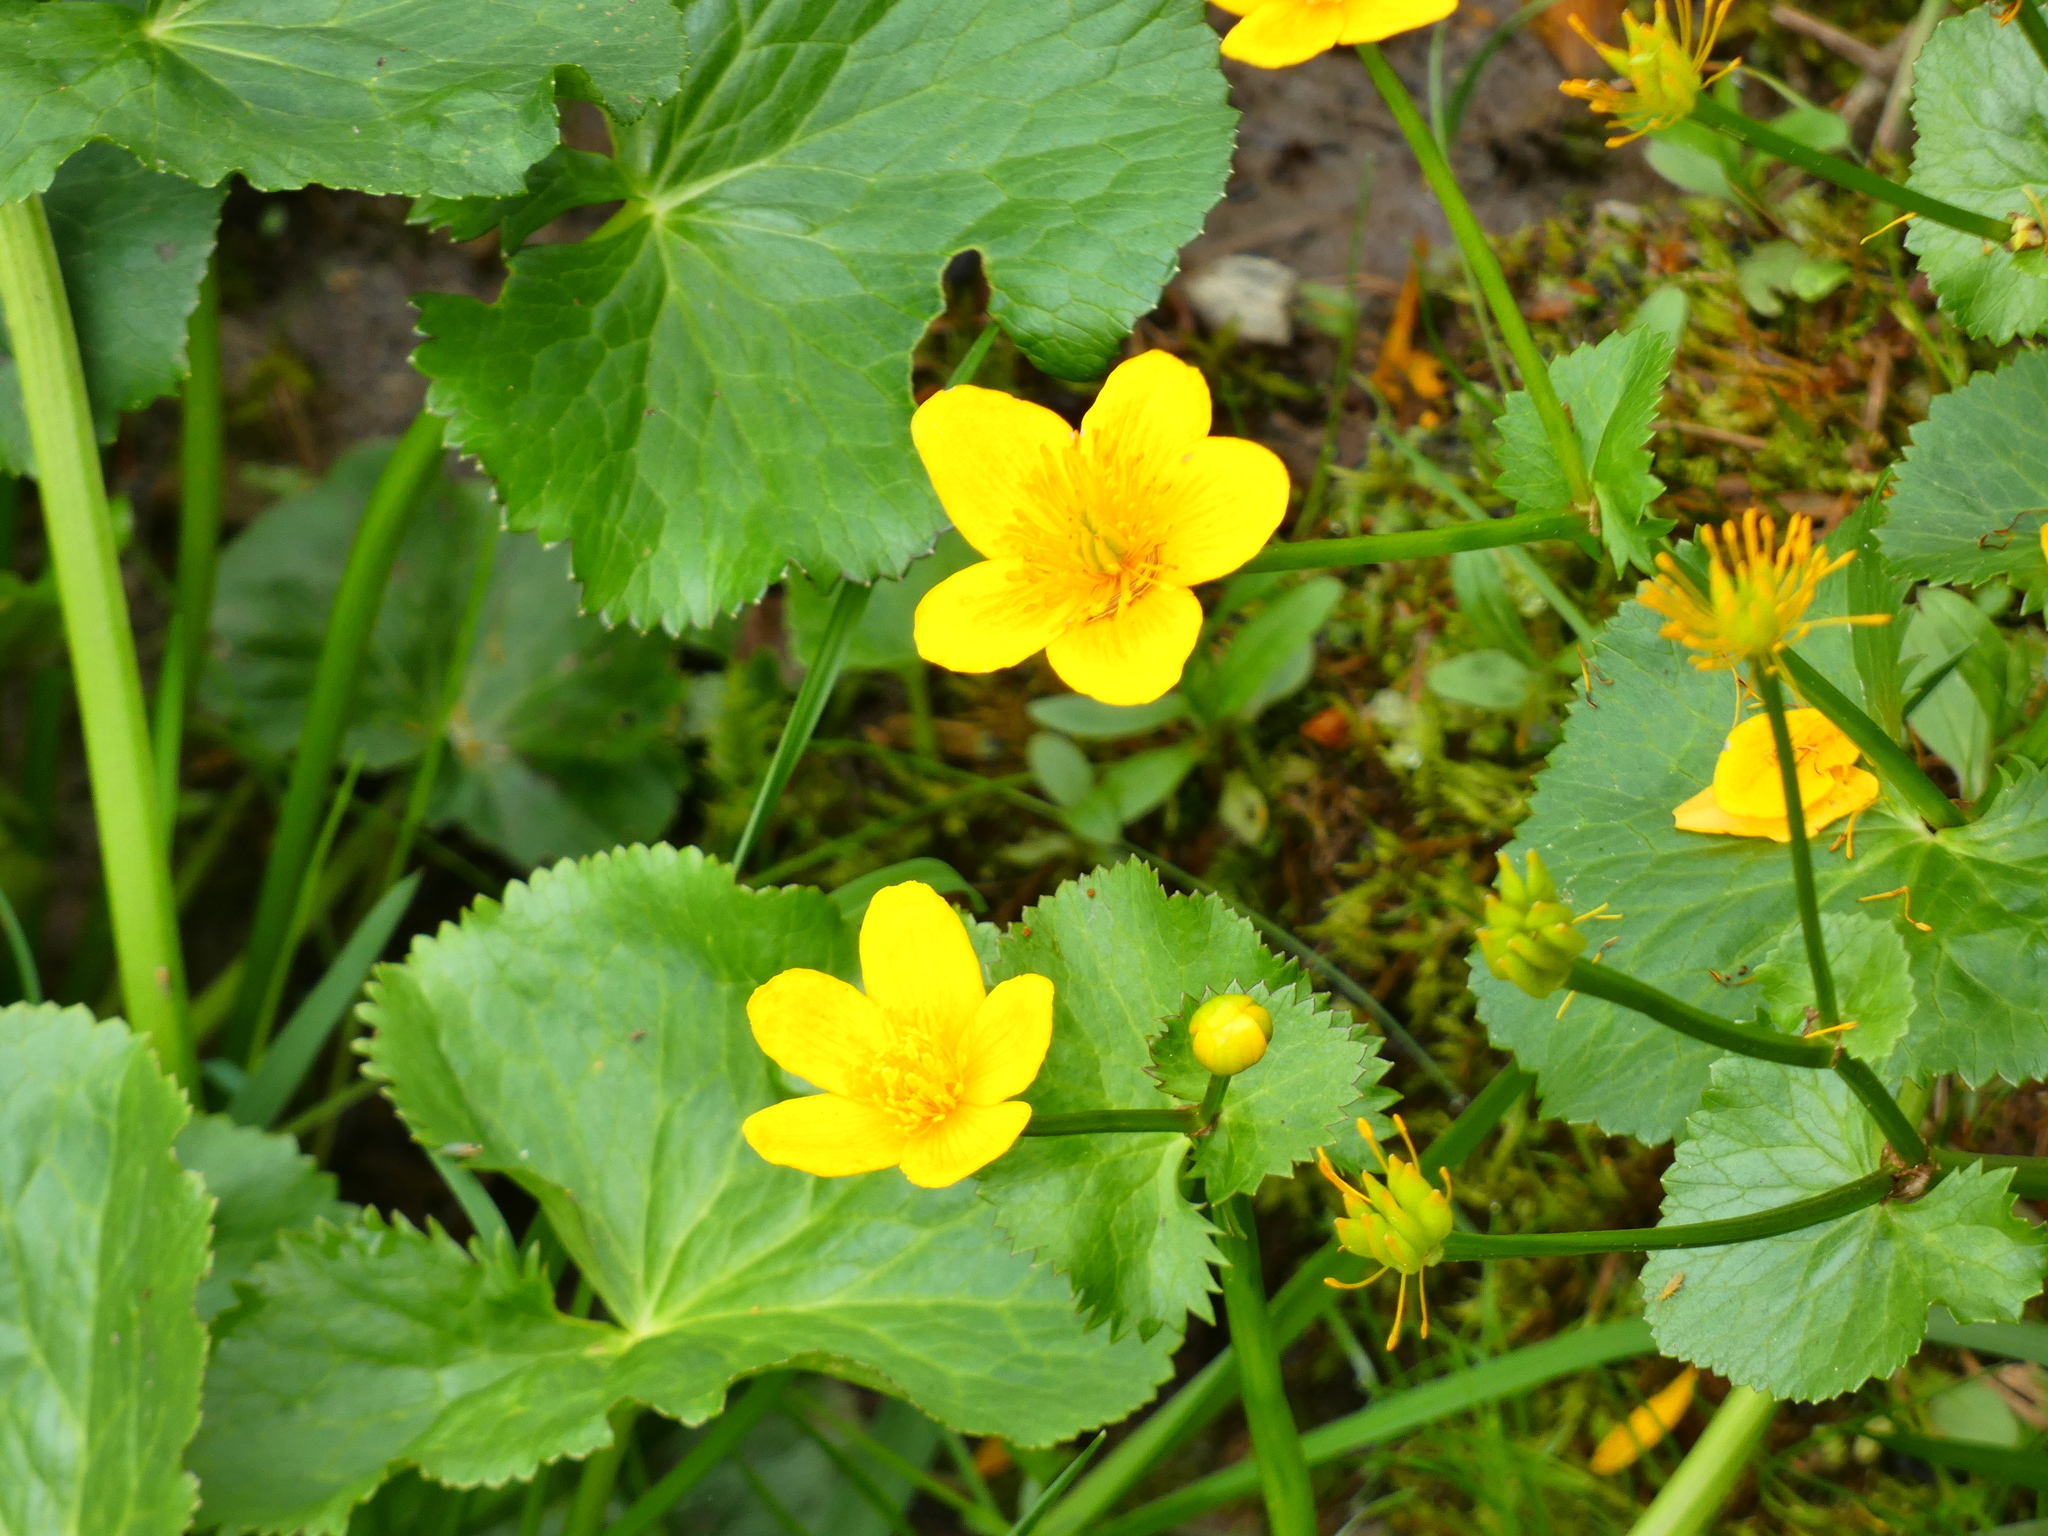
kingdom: Plantae
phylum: Tracheophyta
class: Magnoliopsida
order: Ranunculales
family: Ranunculaceae
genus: Caltha
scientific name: Caltha palustris
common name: Marsh marigold
